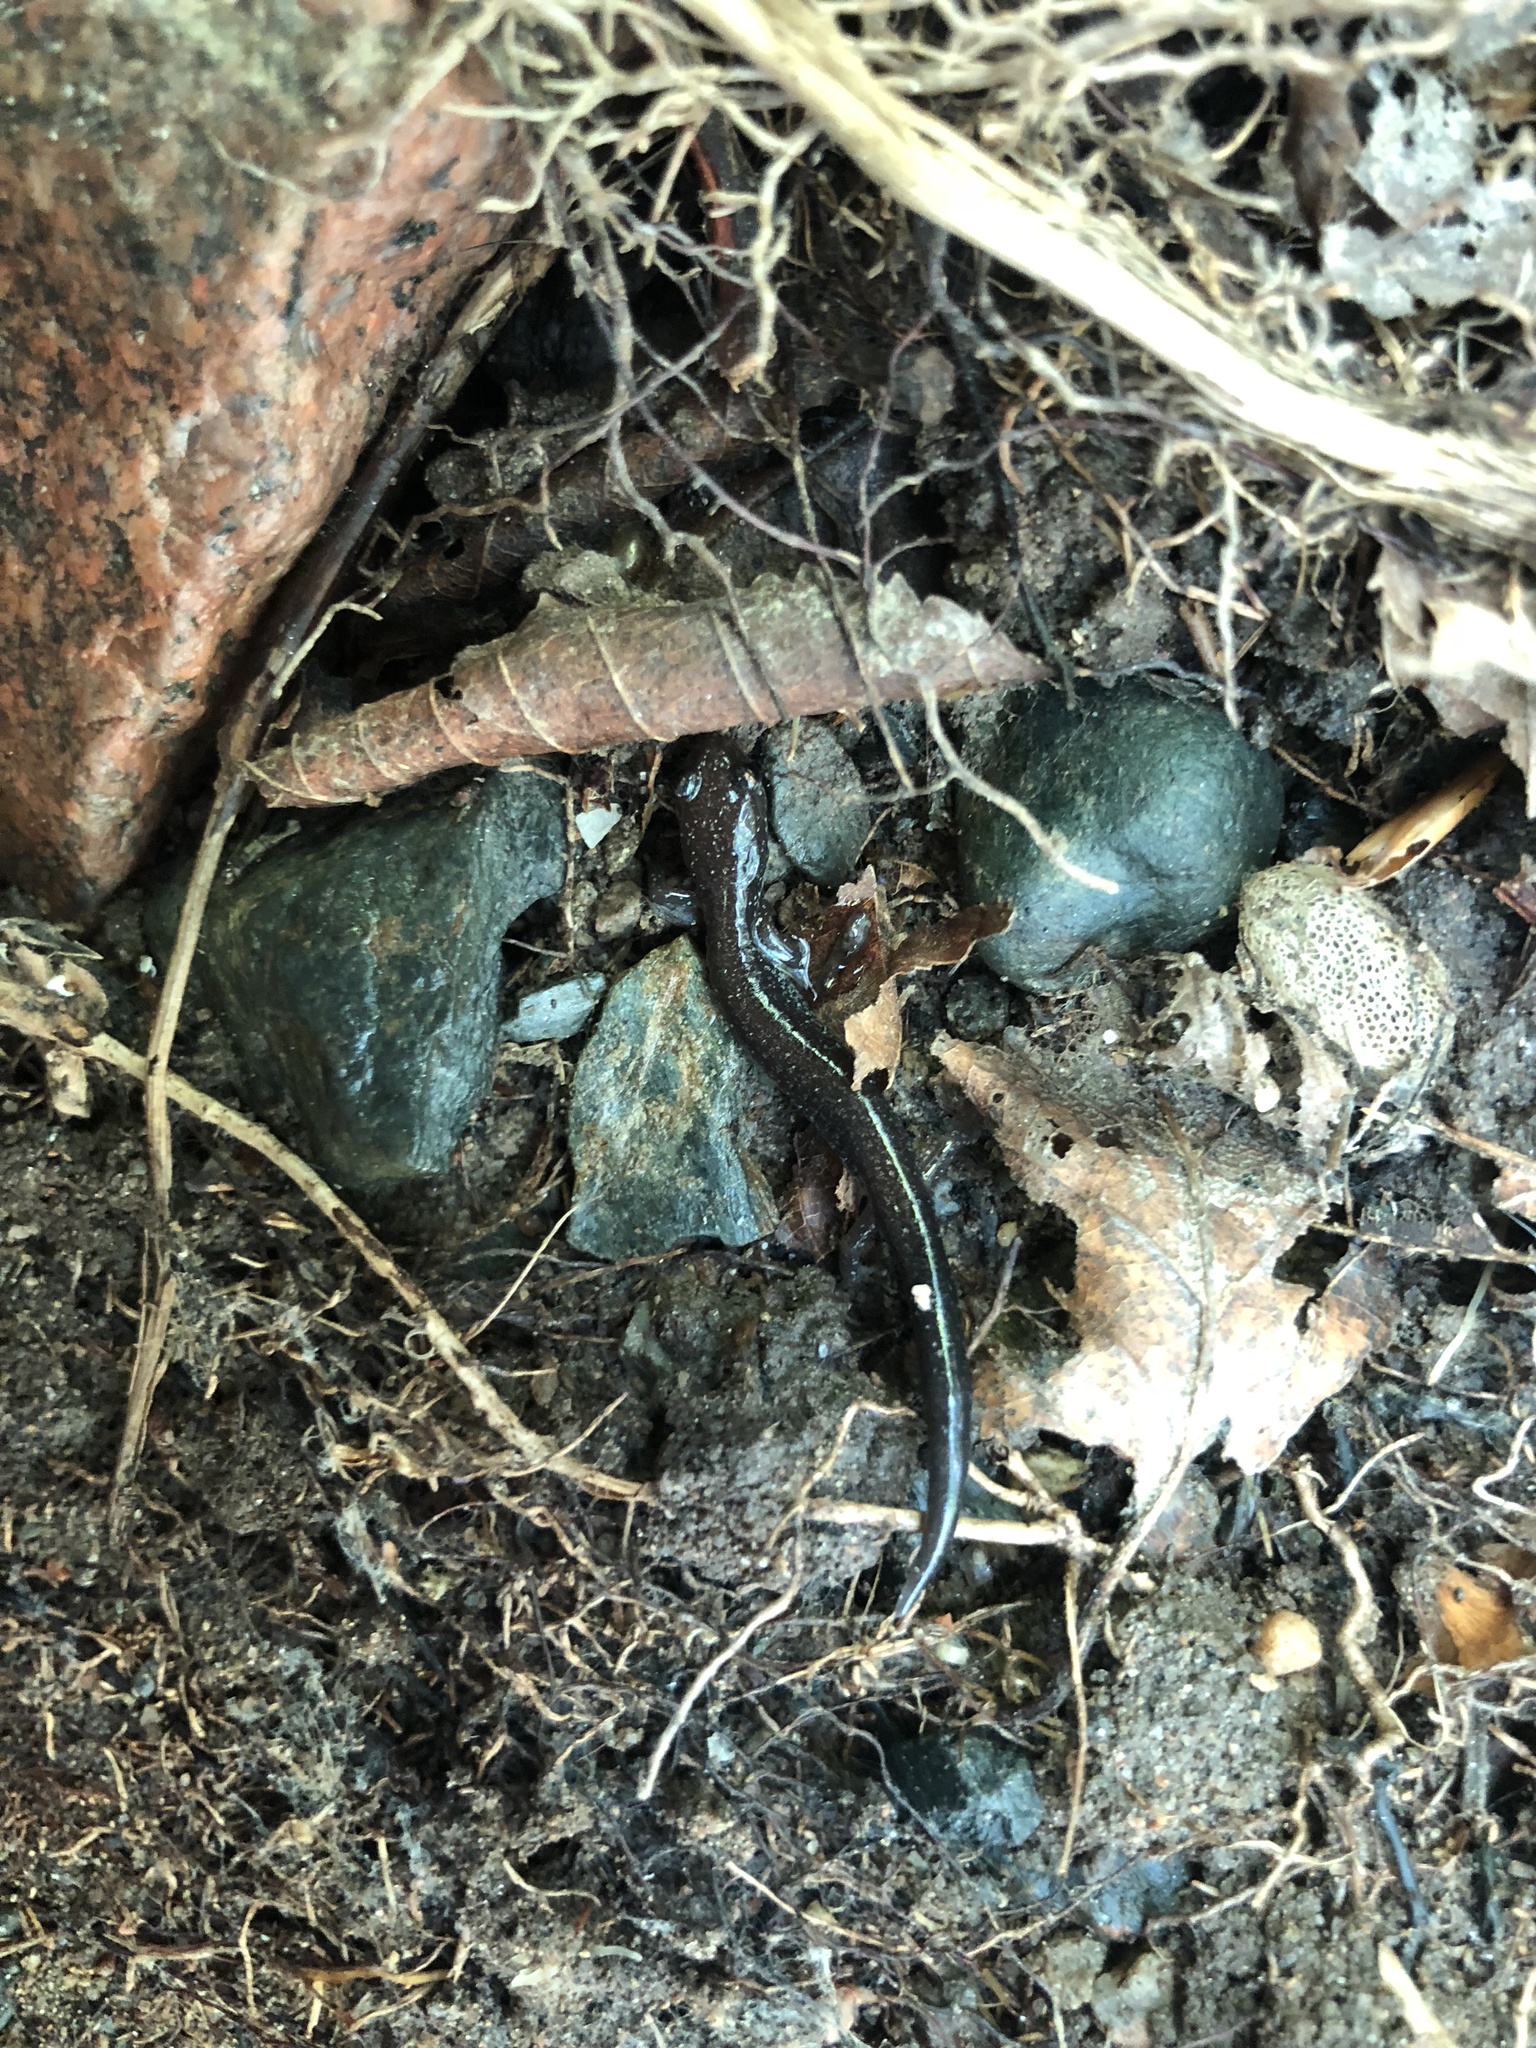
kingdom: Animalia
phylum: Chordata
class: Amphibia
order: Caudata
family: Plethodontidae
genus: Plethodon
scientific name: Plethodon cinereus
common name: Redback salamander
